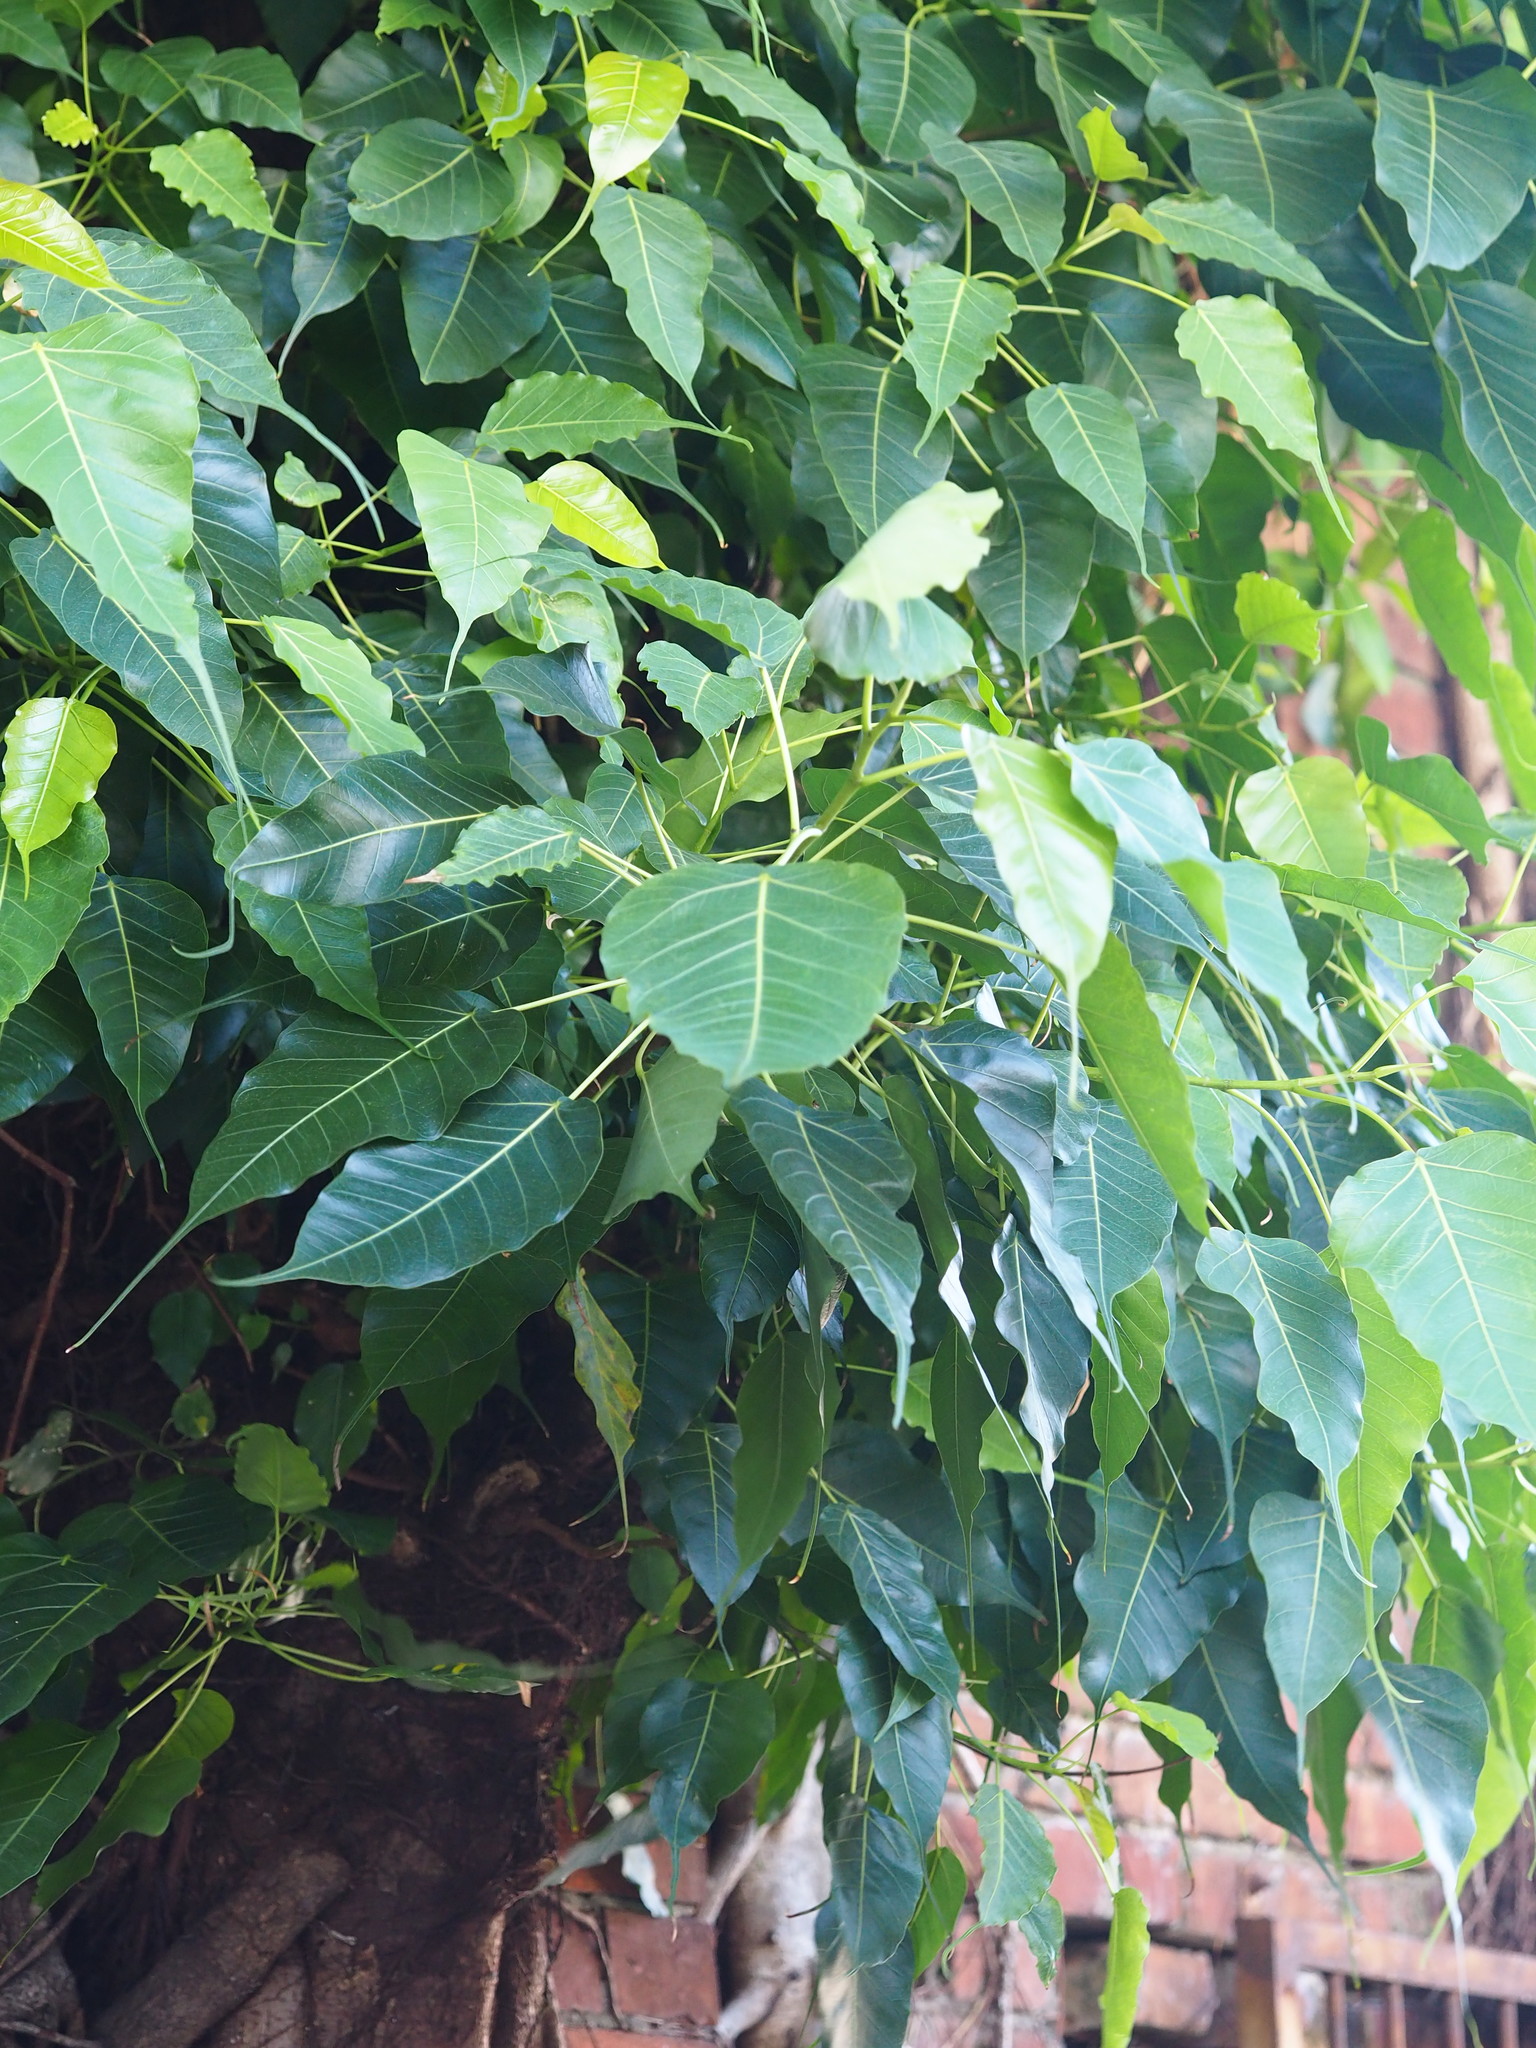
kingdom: Plantae
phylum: Tracheophyta
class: Magnoliopsida
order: Rosales
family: Moraceae
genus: Ficus
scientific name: Ficus religiosa
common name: Bodhi tree
